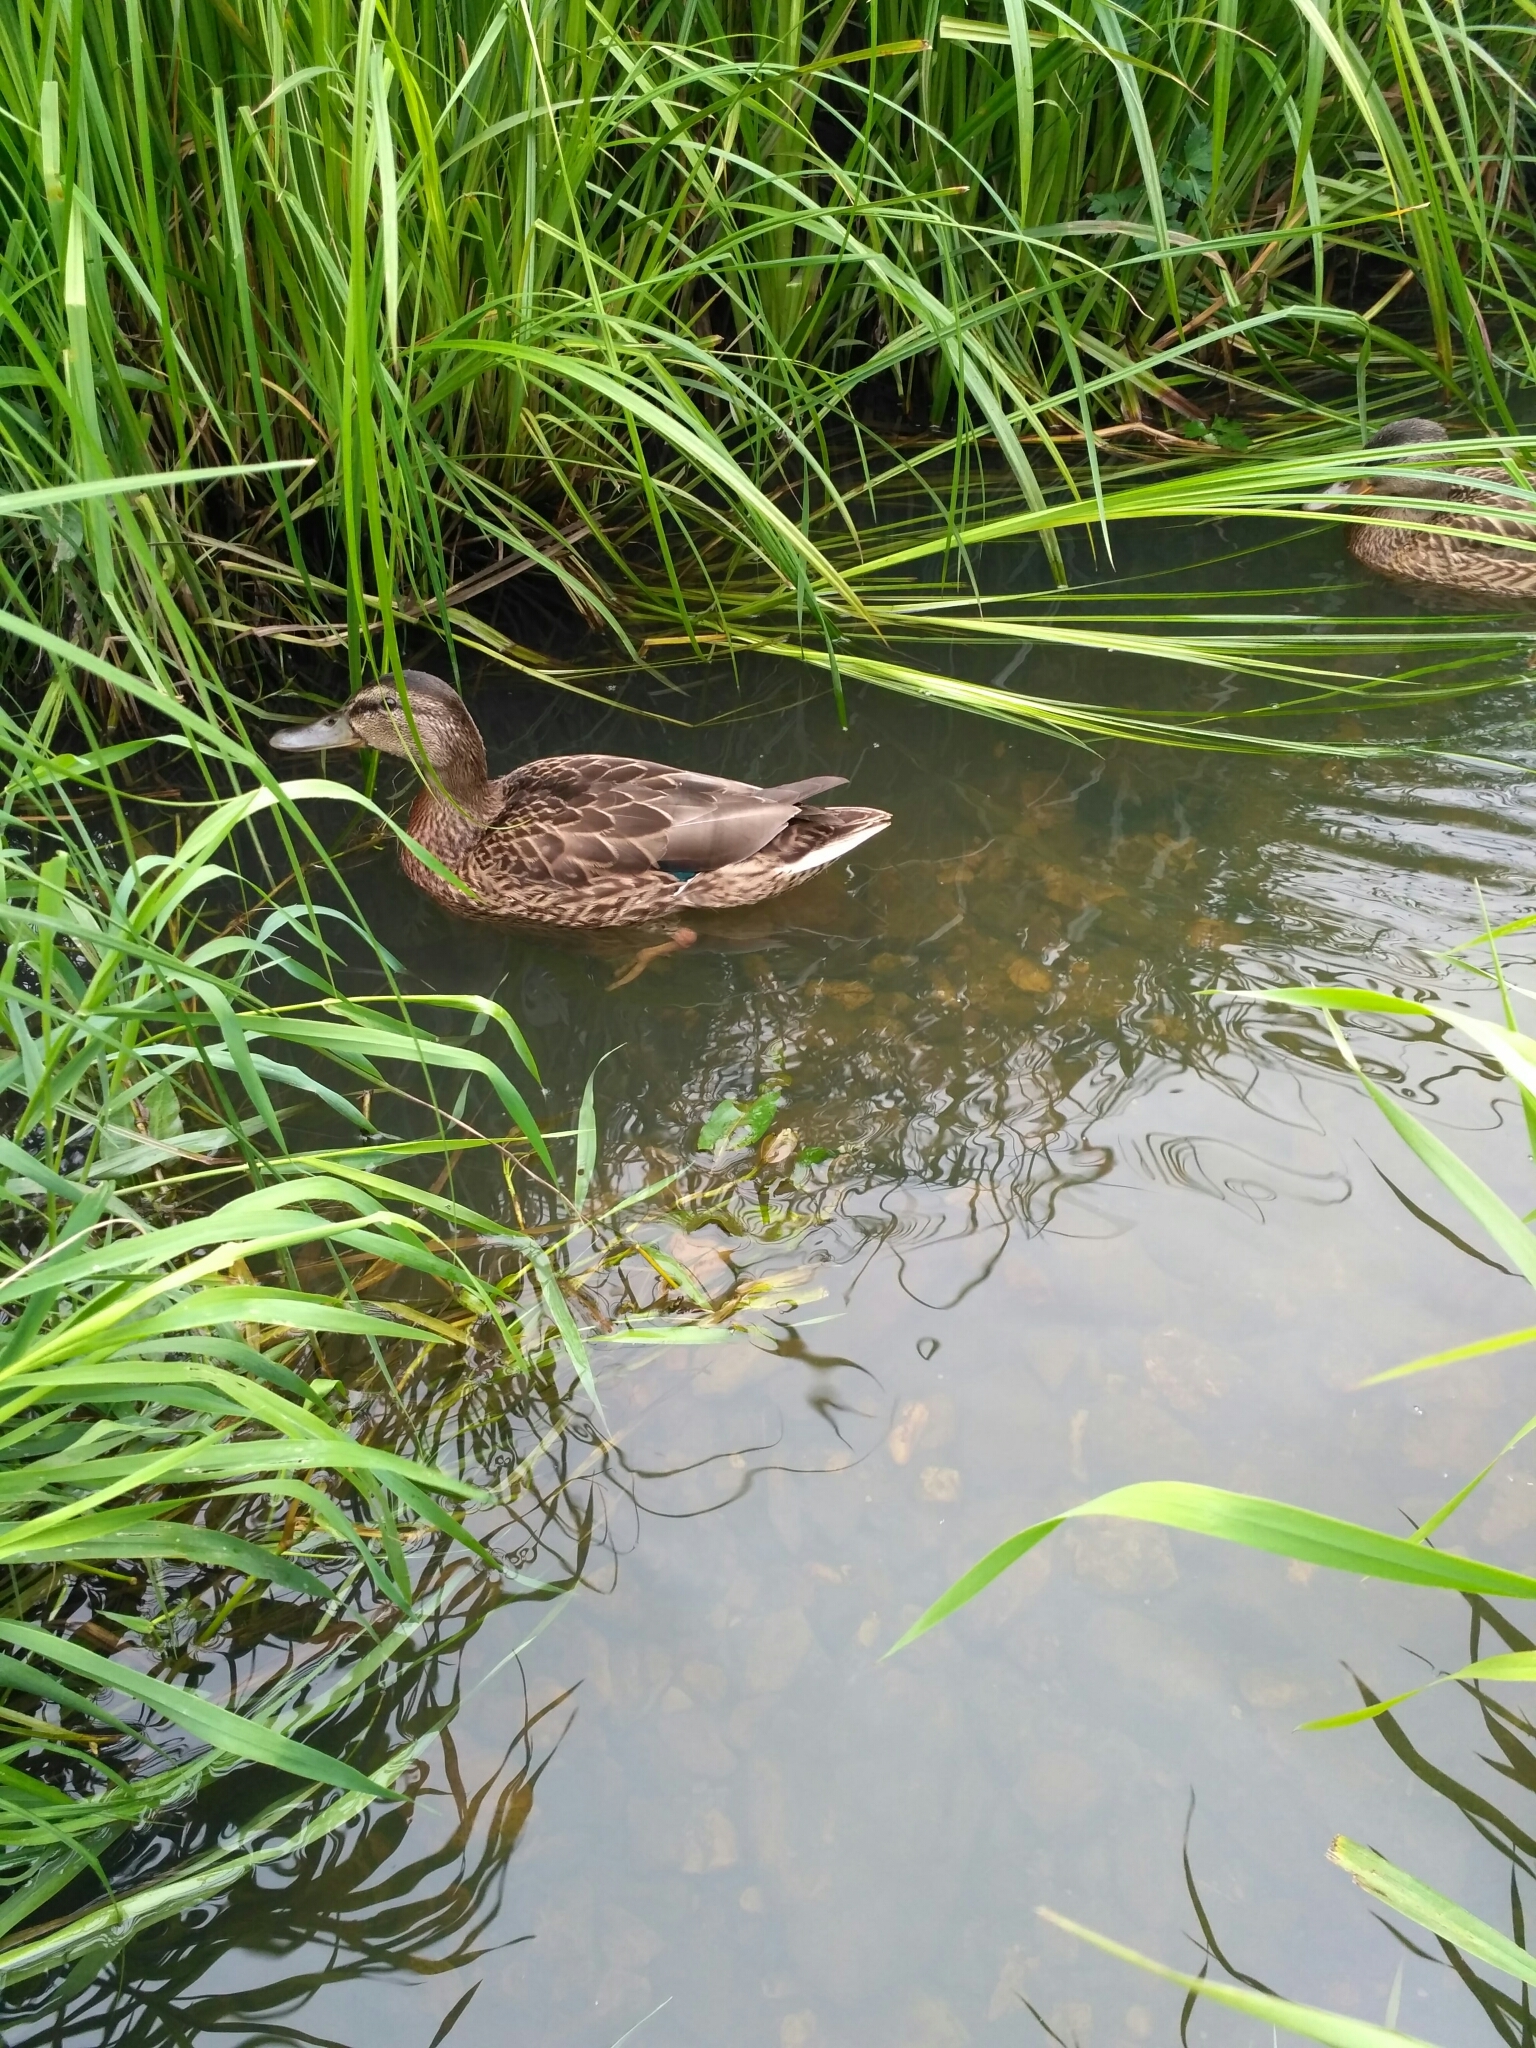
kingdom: Animalia
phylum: Chordata
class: Aves
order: Anseriformes
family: Anatidae
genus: Anas
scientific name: Anas platyrhynchos
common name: Mallard
